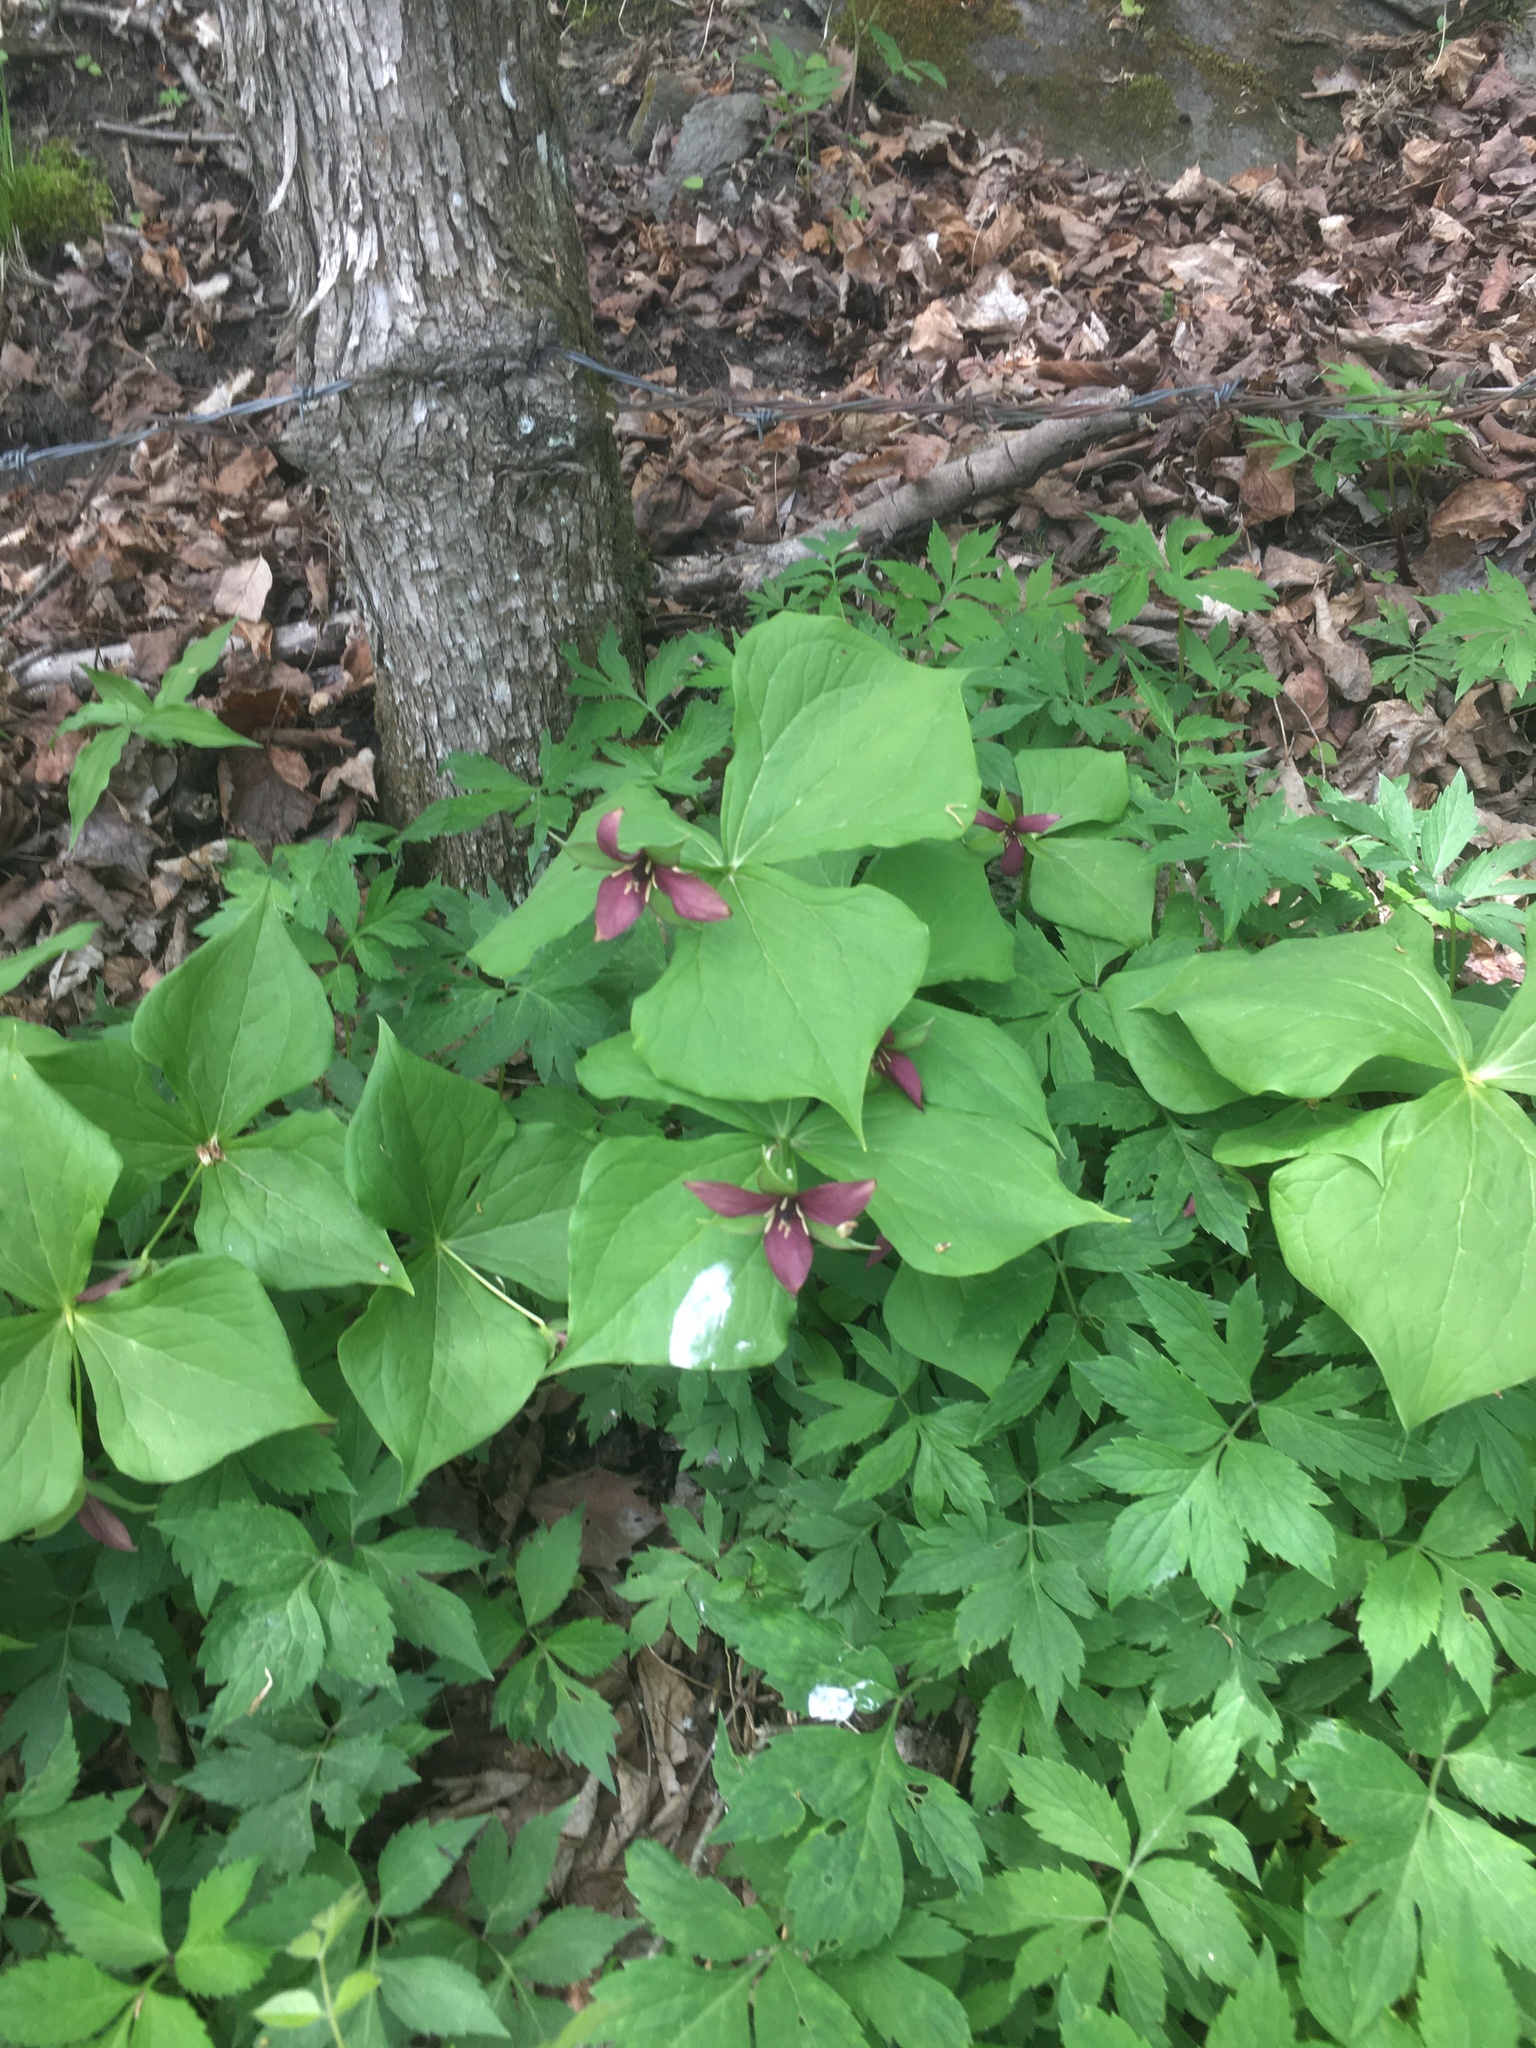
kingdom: Plantae
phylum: Tracheophyta
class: Liliopsida
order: Liliales
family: Melanthiaceae
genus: Trillium
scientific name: Trillium erectum
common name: Purple trillium
